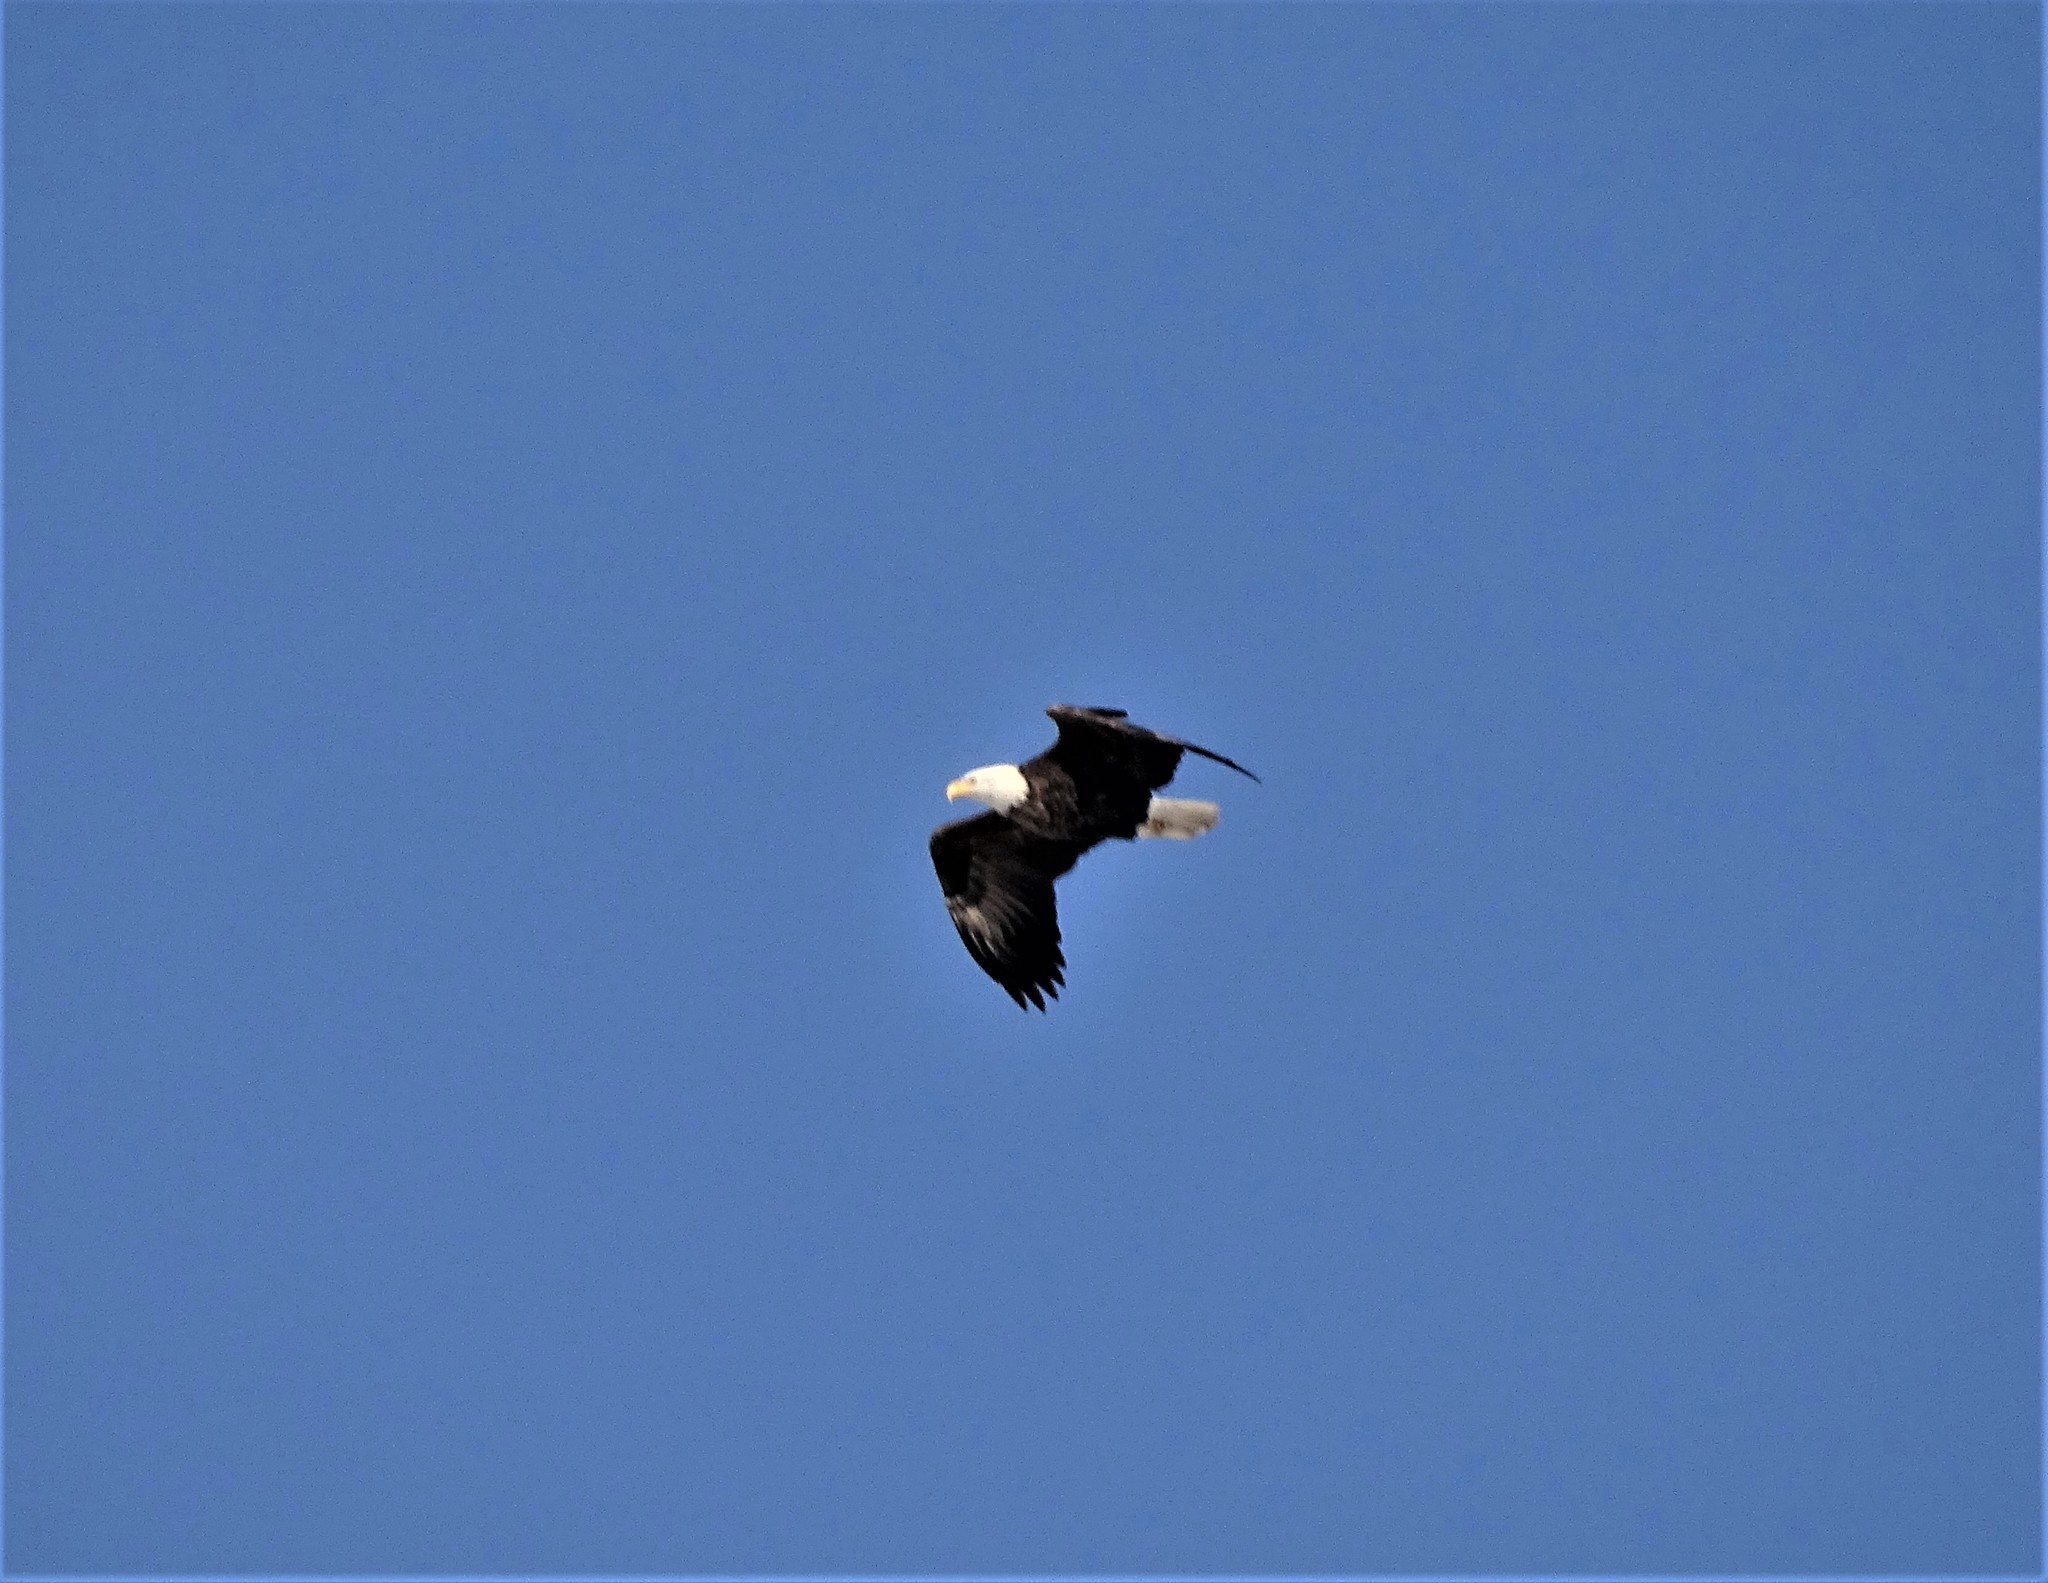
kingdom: Animalia
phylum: Chordata
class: Aves
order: Accipitriformes
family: Accipitridae
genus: Haliaeetus
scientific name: Haliaeetus leucocephalus
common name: Bald eagle
